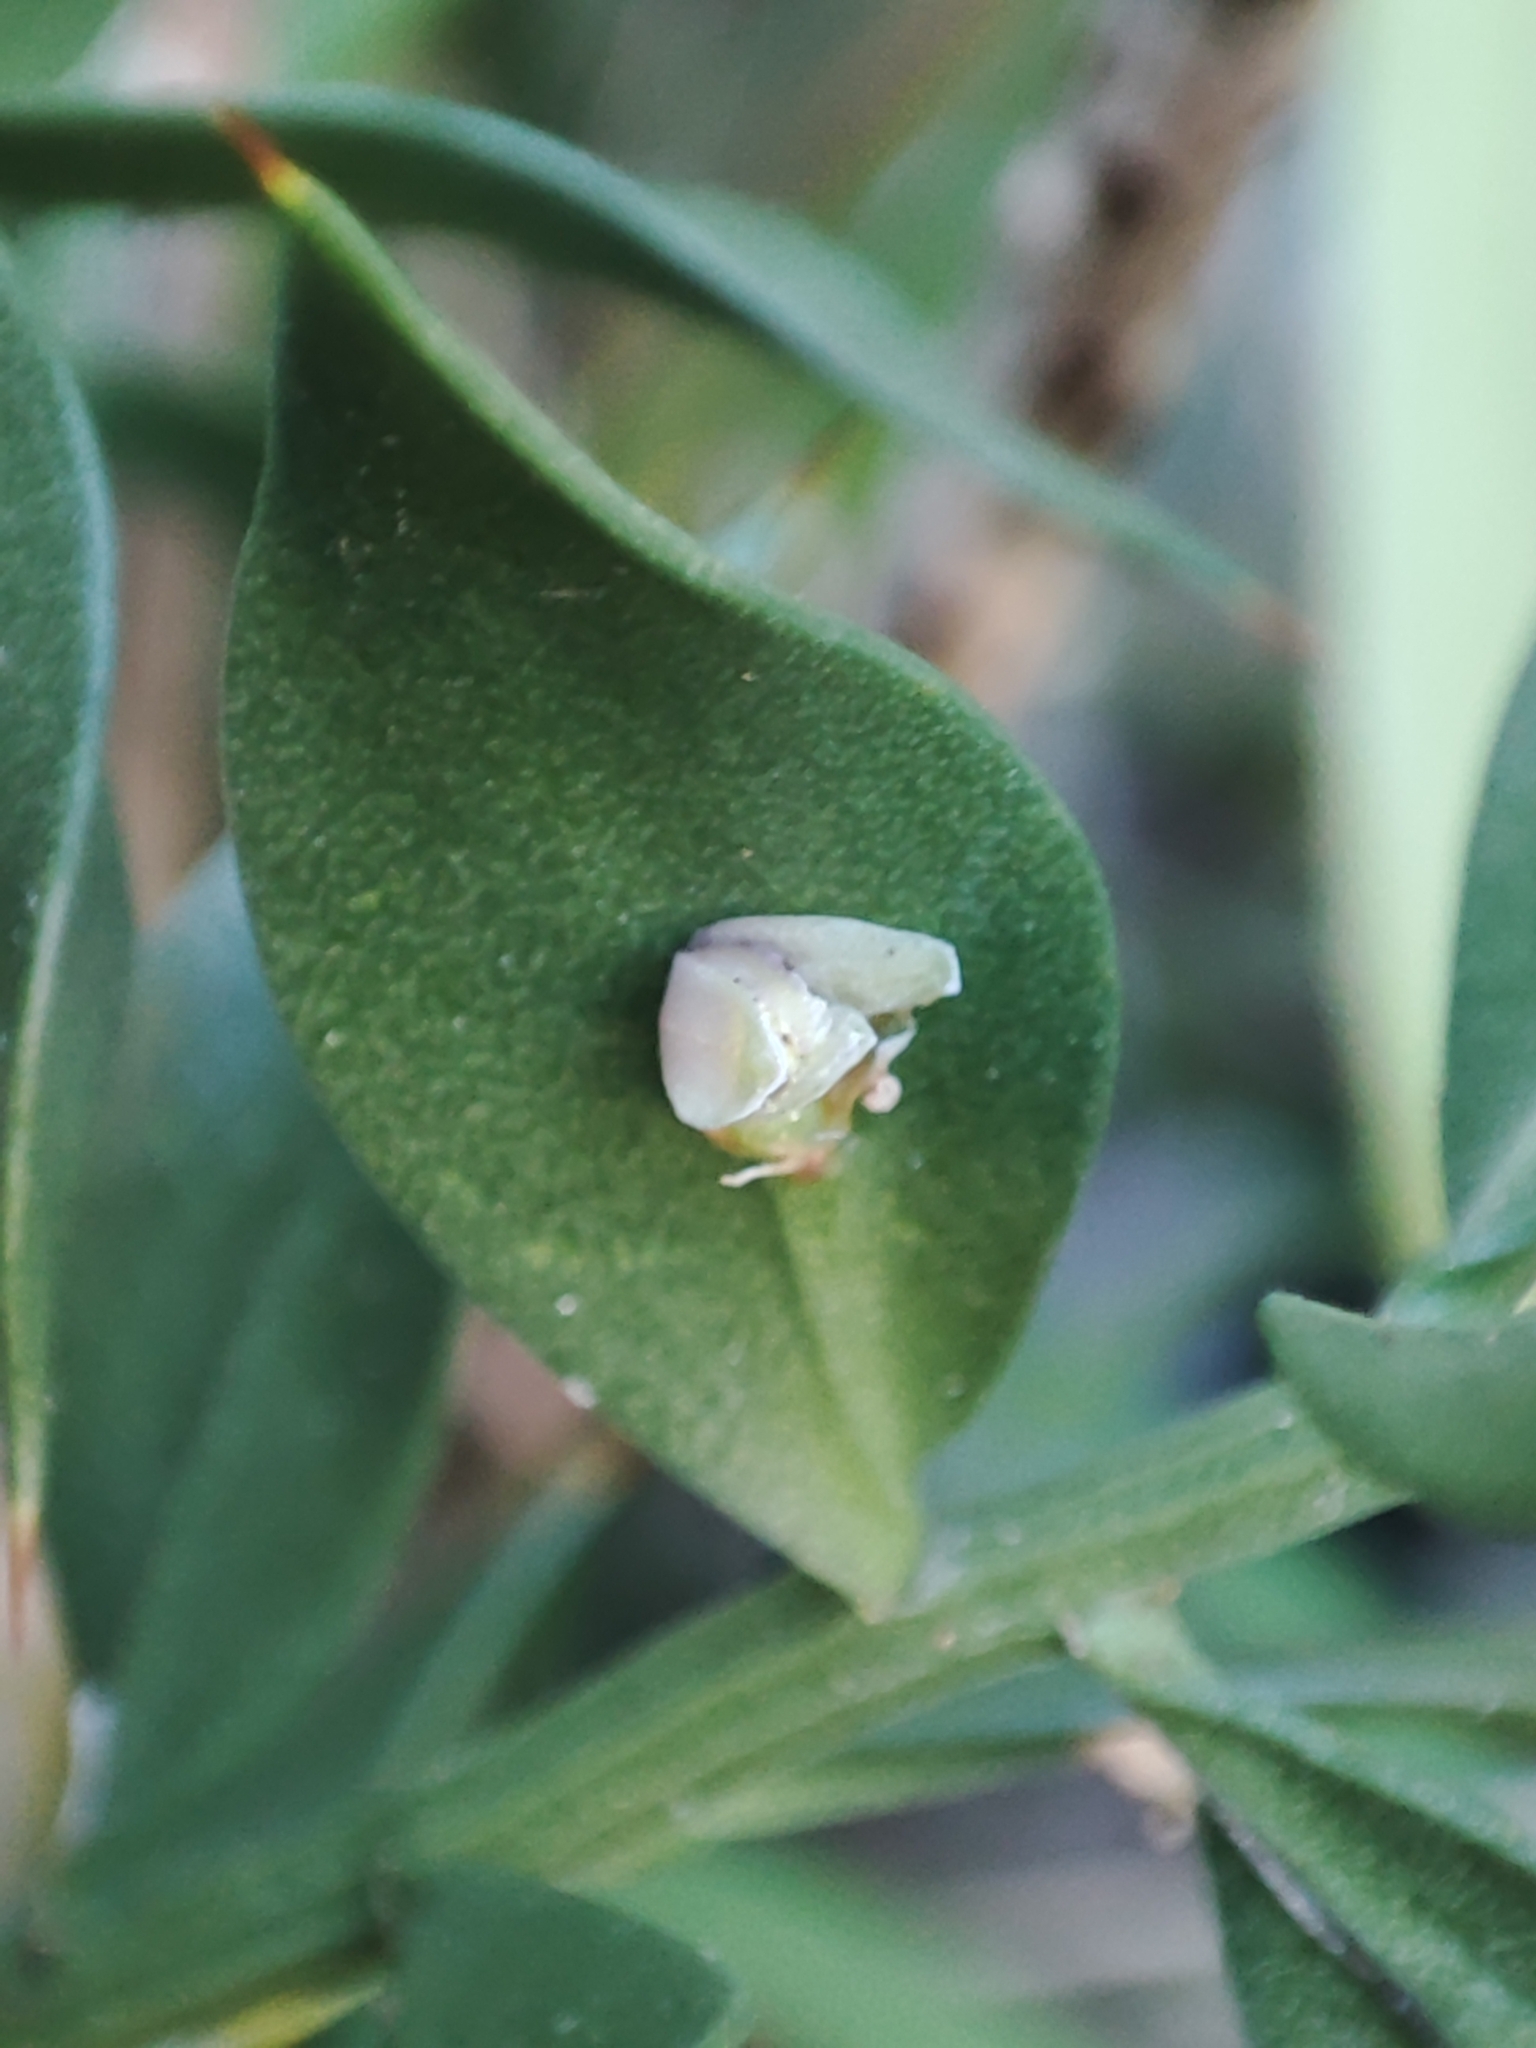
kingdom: Plantae
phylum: Tracheophyta
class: Liliopsida
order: Asparagales
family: Asparagaceae
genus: Ruscus
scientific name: Ruscus aculeatus
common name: Butcher's-broom
